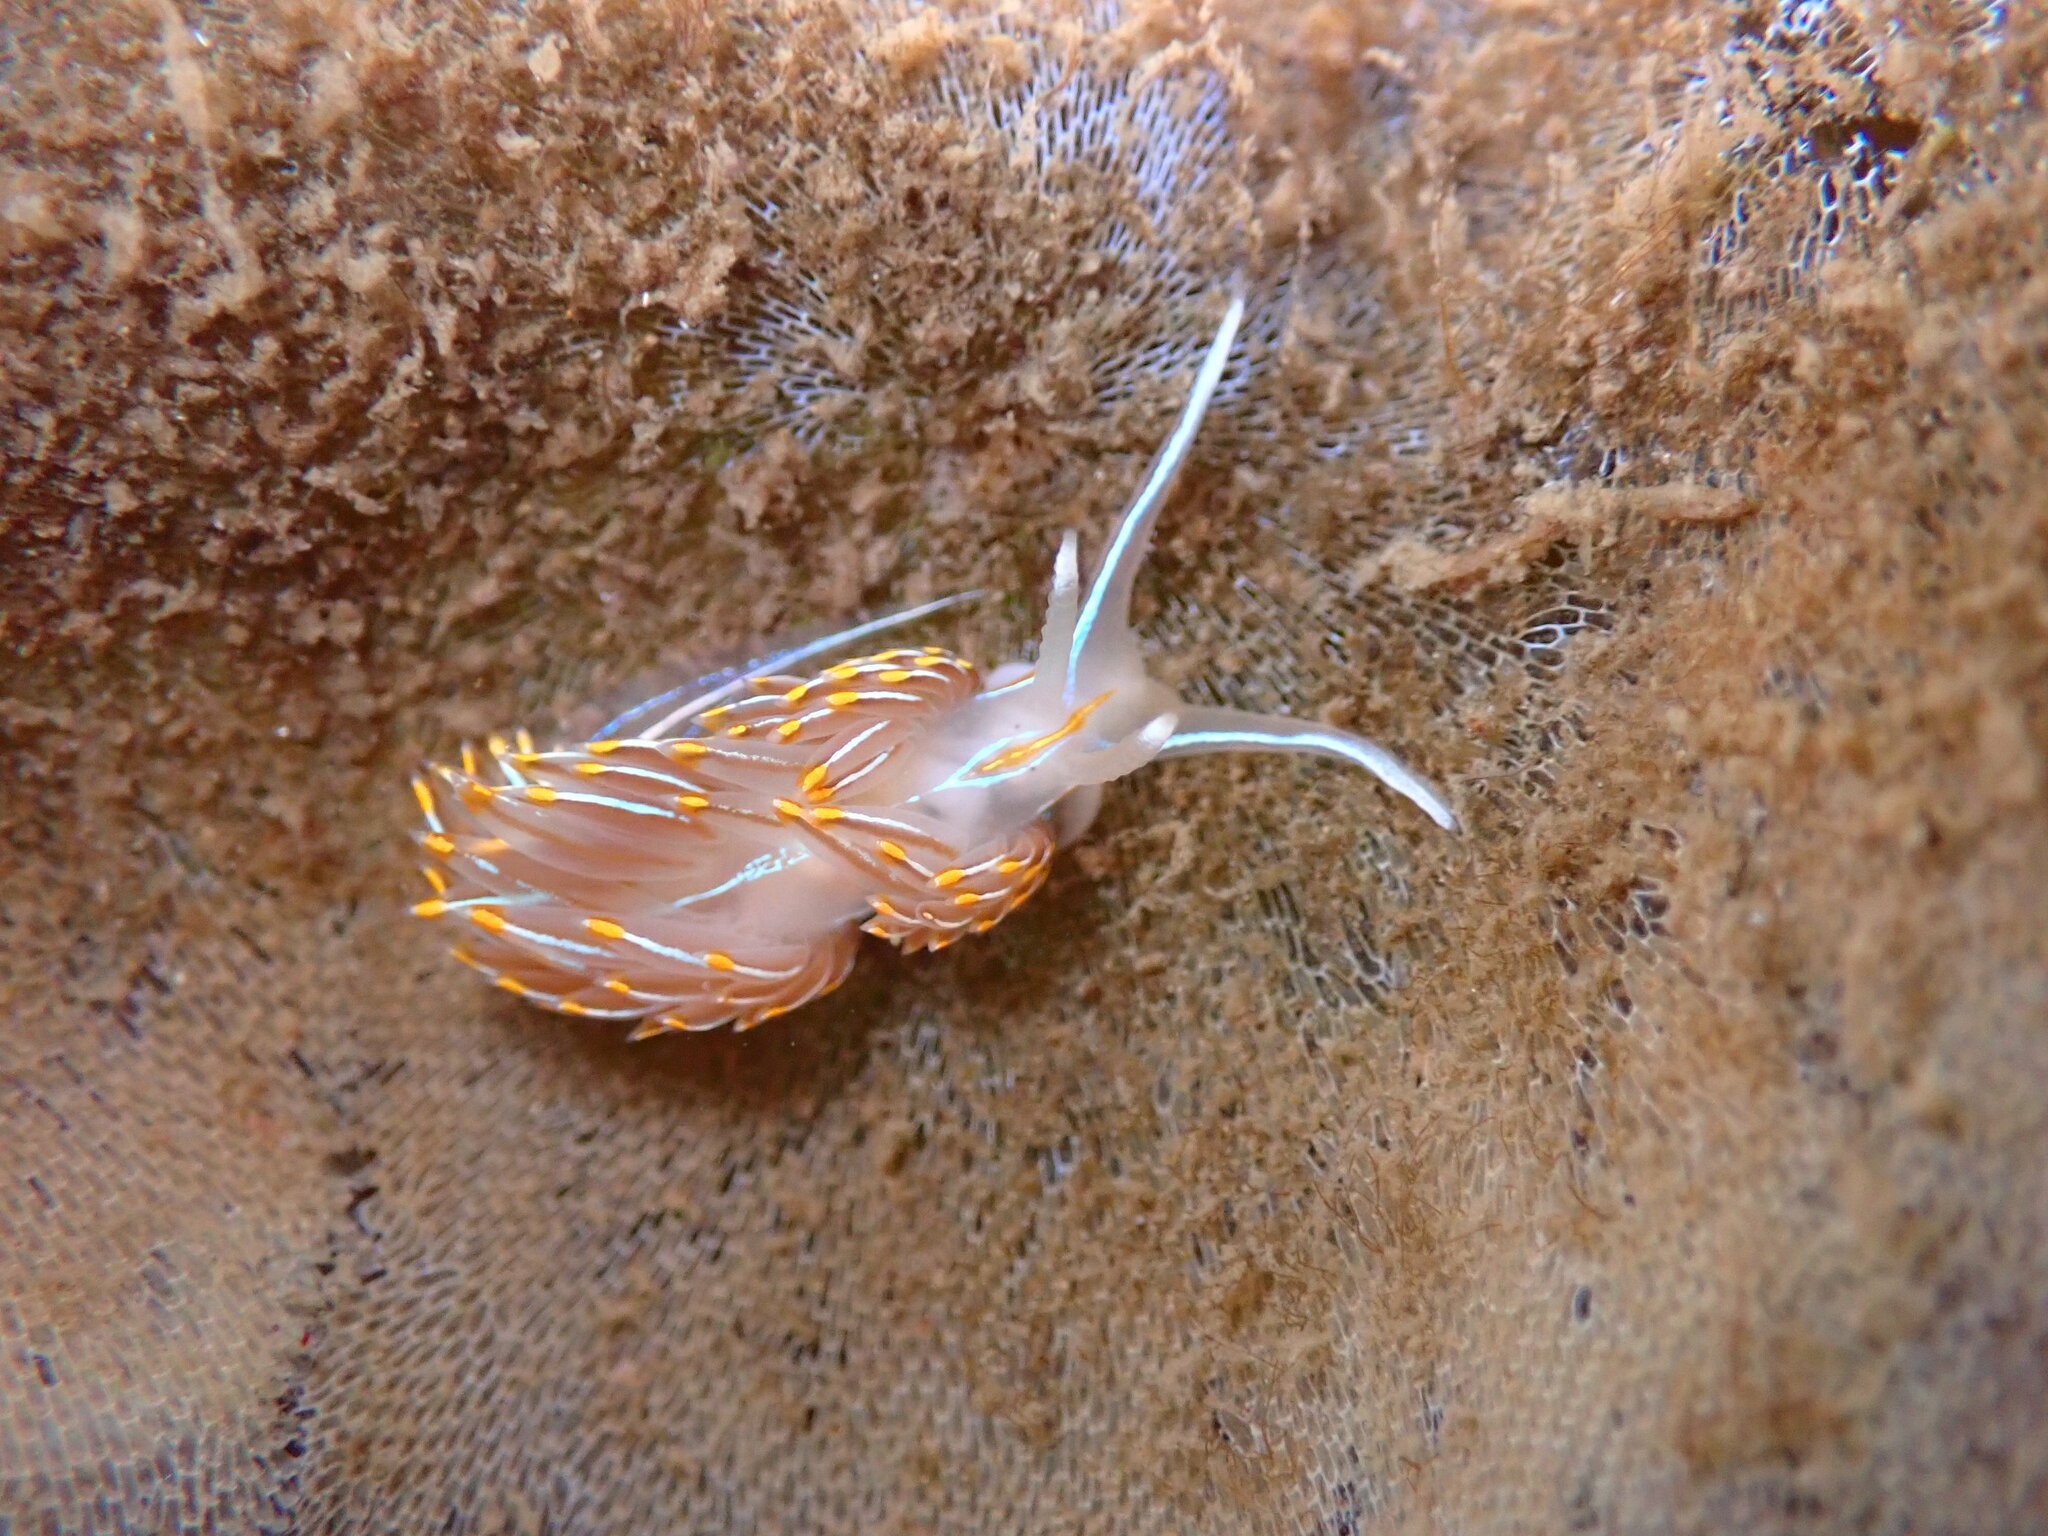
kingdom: Animalia
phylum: Mollusca
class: Gastropoda
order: Nudibranchia
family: Myrrhinidae
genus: Hermissenda
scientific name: Hermissenda crassicornis
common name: Hermissenda
